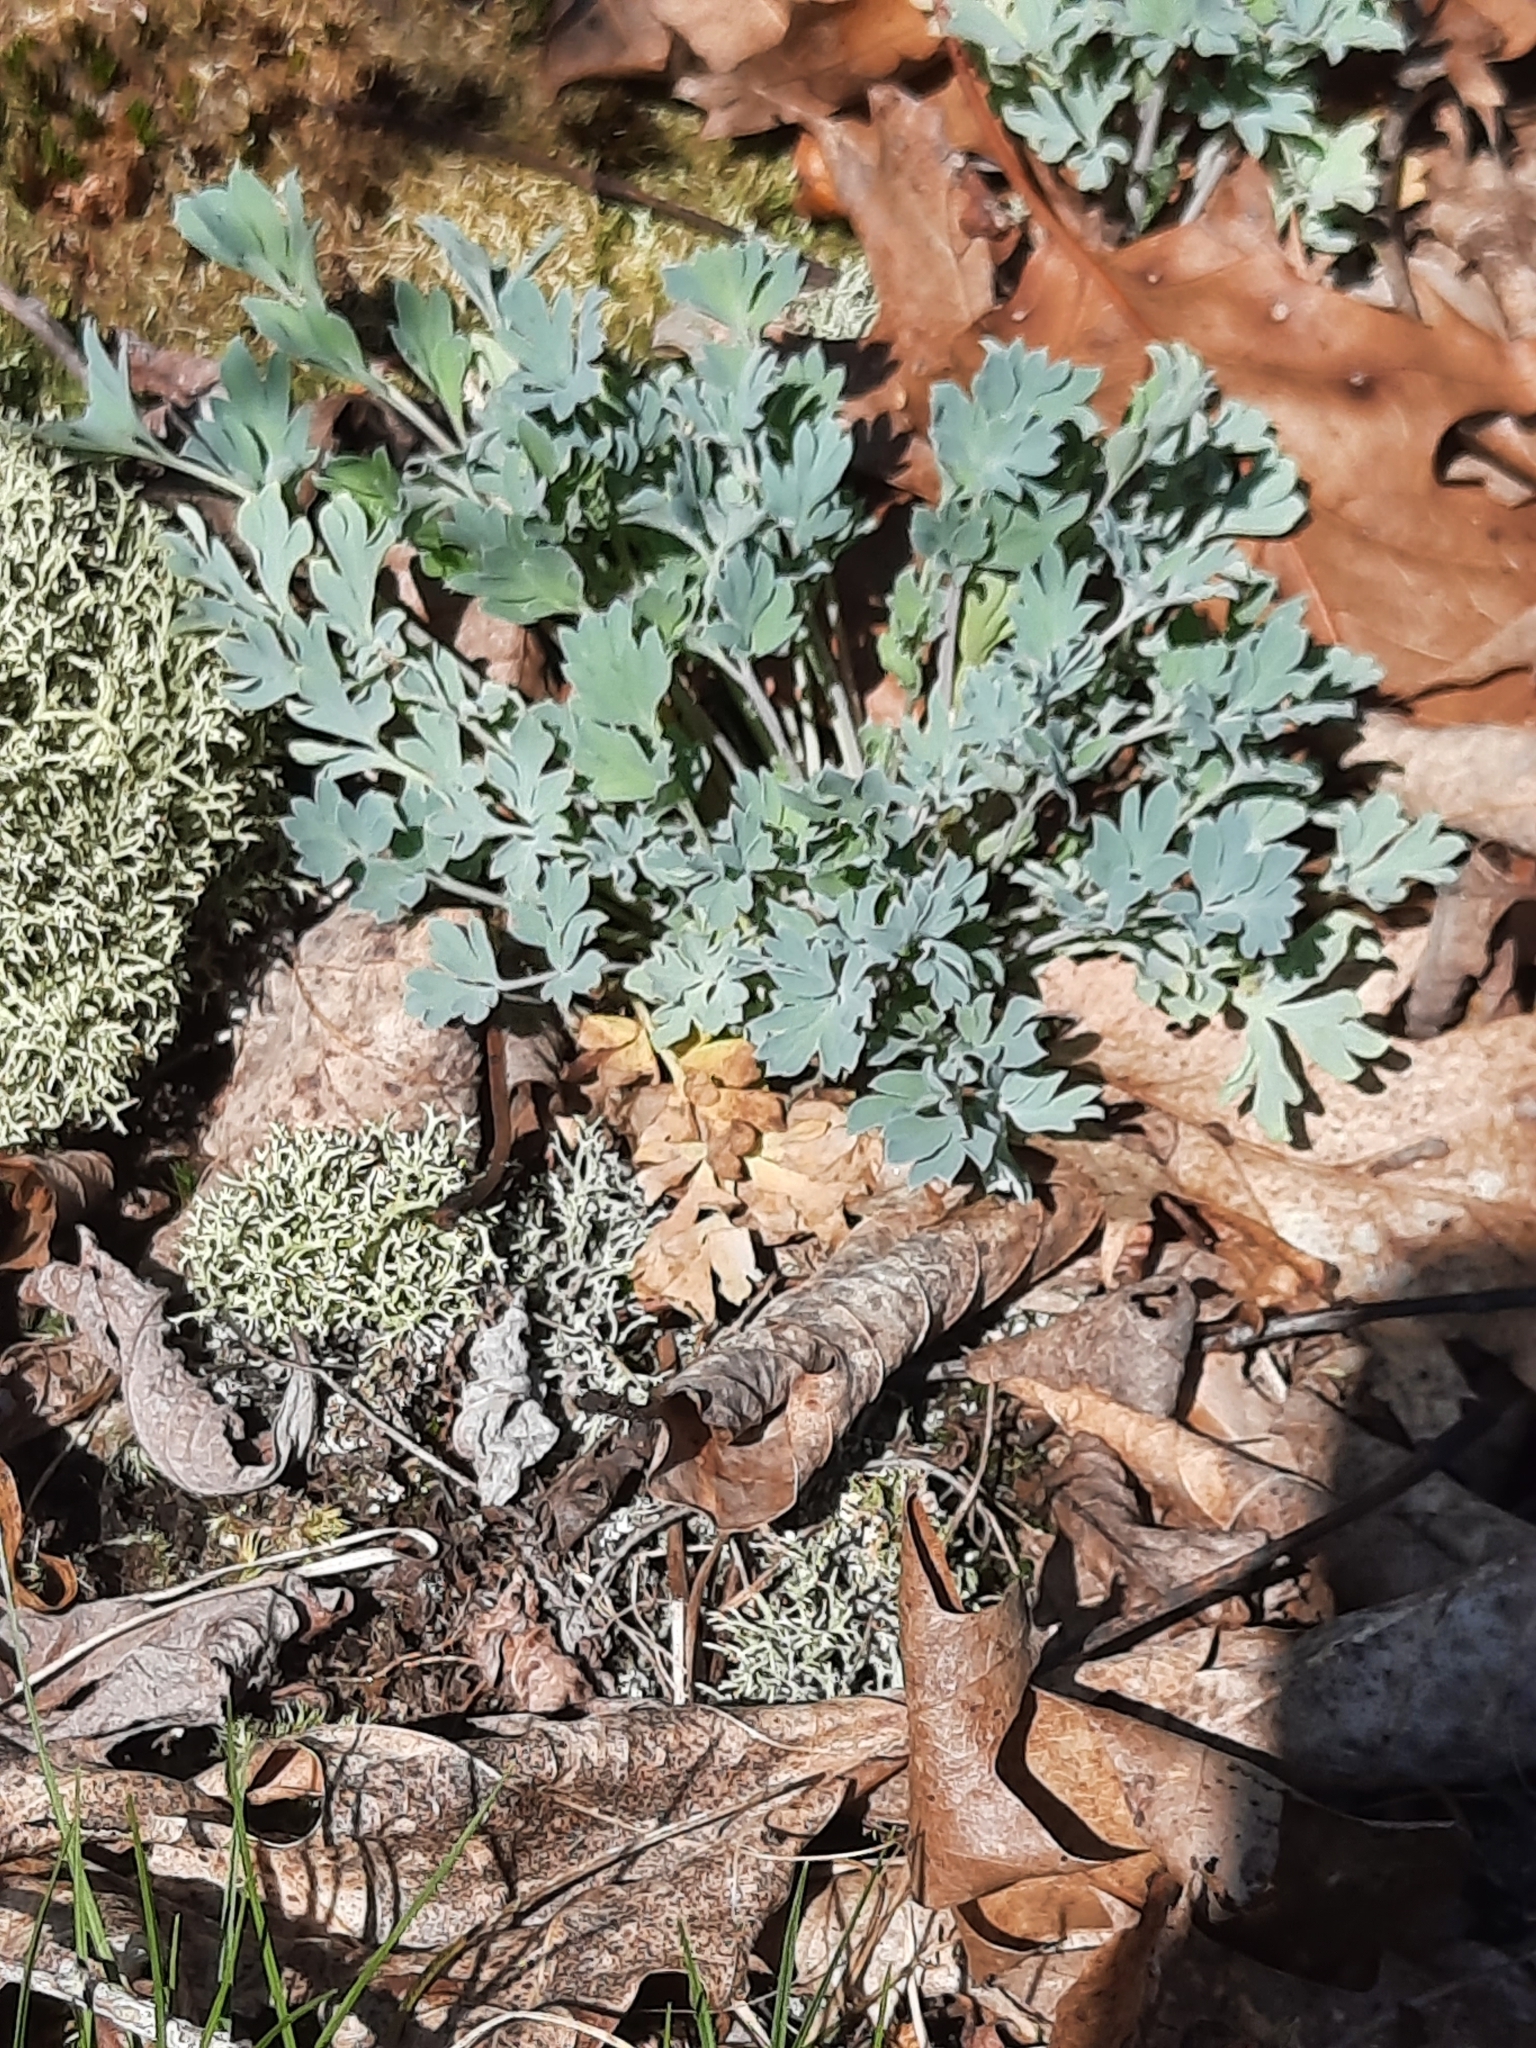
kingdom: Plantae
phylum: Tracheophyta
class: Magnoliopsida
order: Ranunculales
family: Papaveraceae
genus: Capnoides
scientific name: Capnoides sempervirens
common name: Rock harlequin
